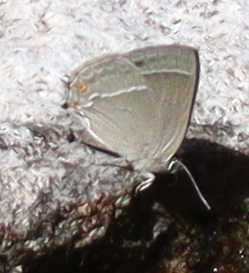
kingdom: Animalia
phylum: Arthropoda
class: Insecta
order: Lepidoptera
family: Lycaenidae
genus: Quercusia
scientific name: Quercusia quercus
